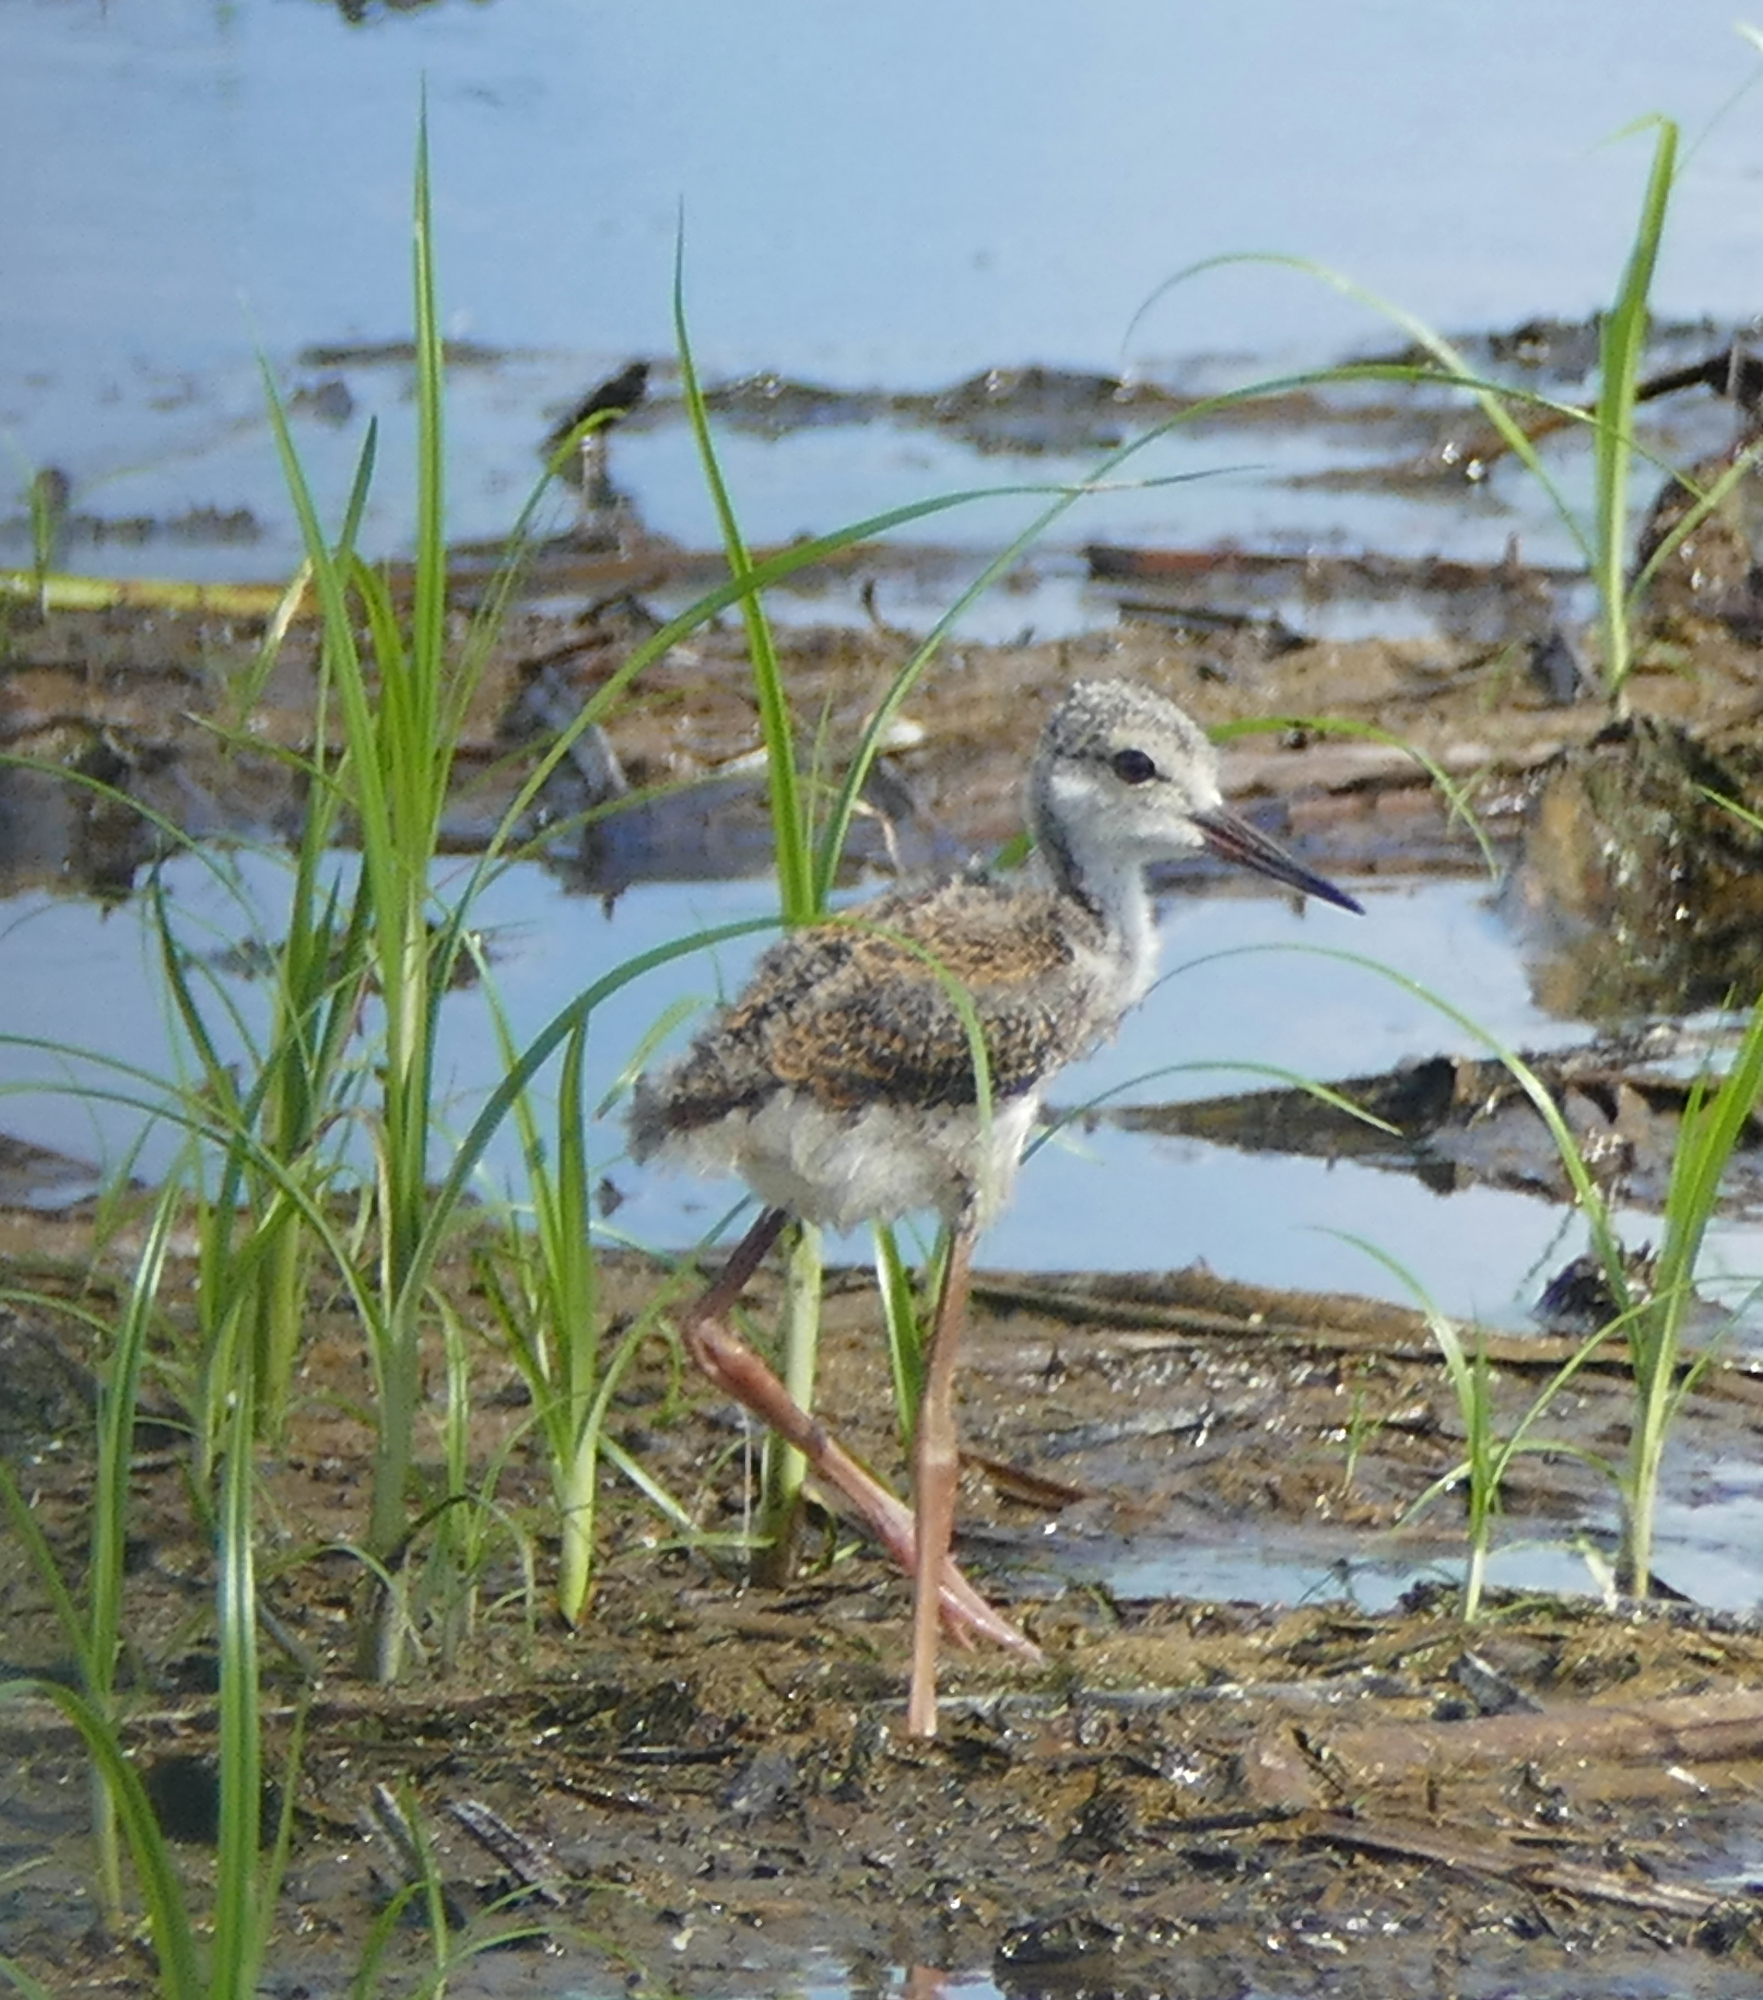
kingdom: Animalia
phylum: Chordata
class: Aves
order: Charadriiformes
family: Recurvirostridae
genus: Himantopus
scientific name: Himantopus mexicanus
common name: Black-necked stilt
